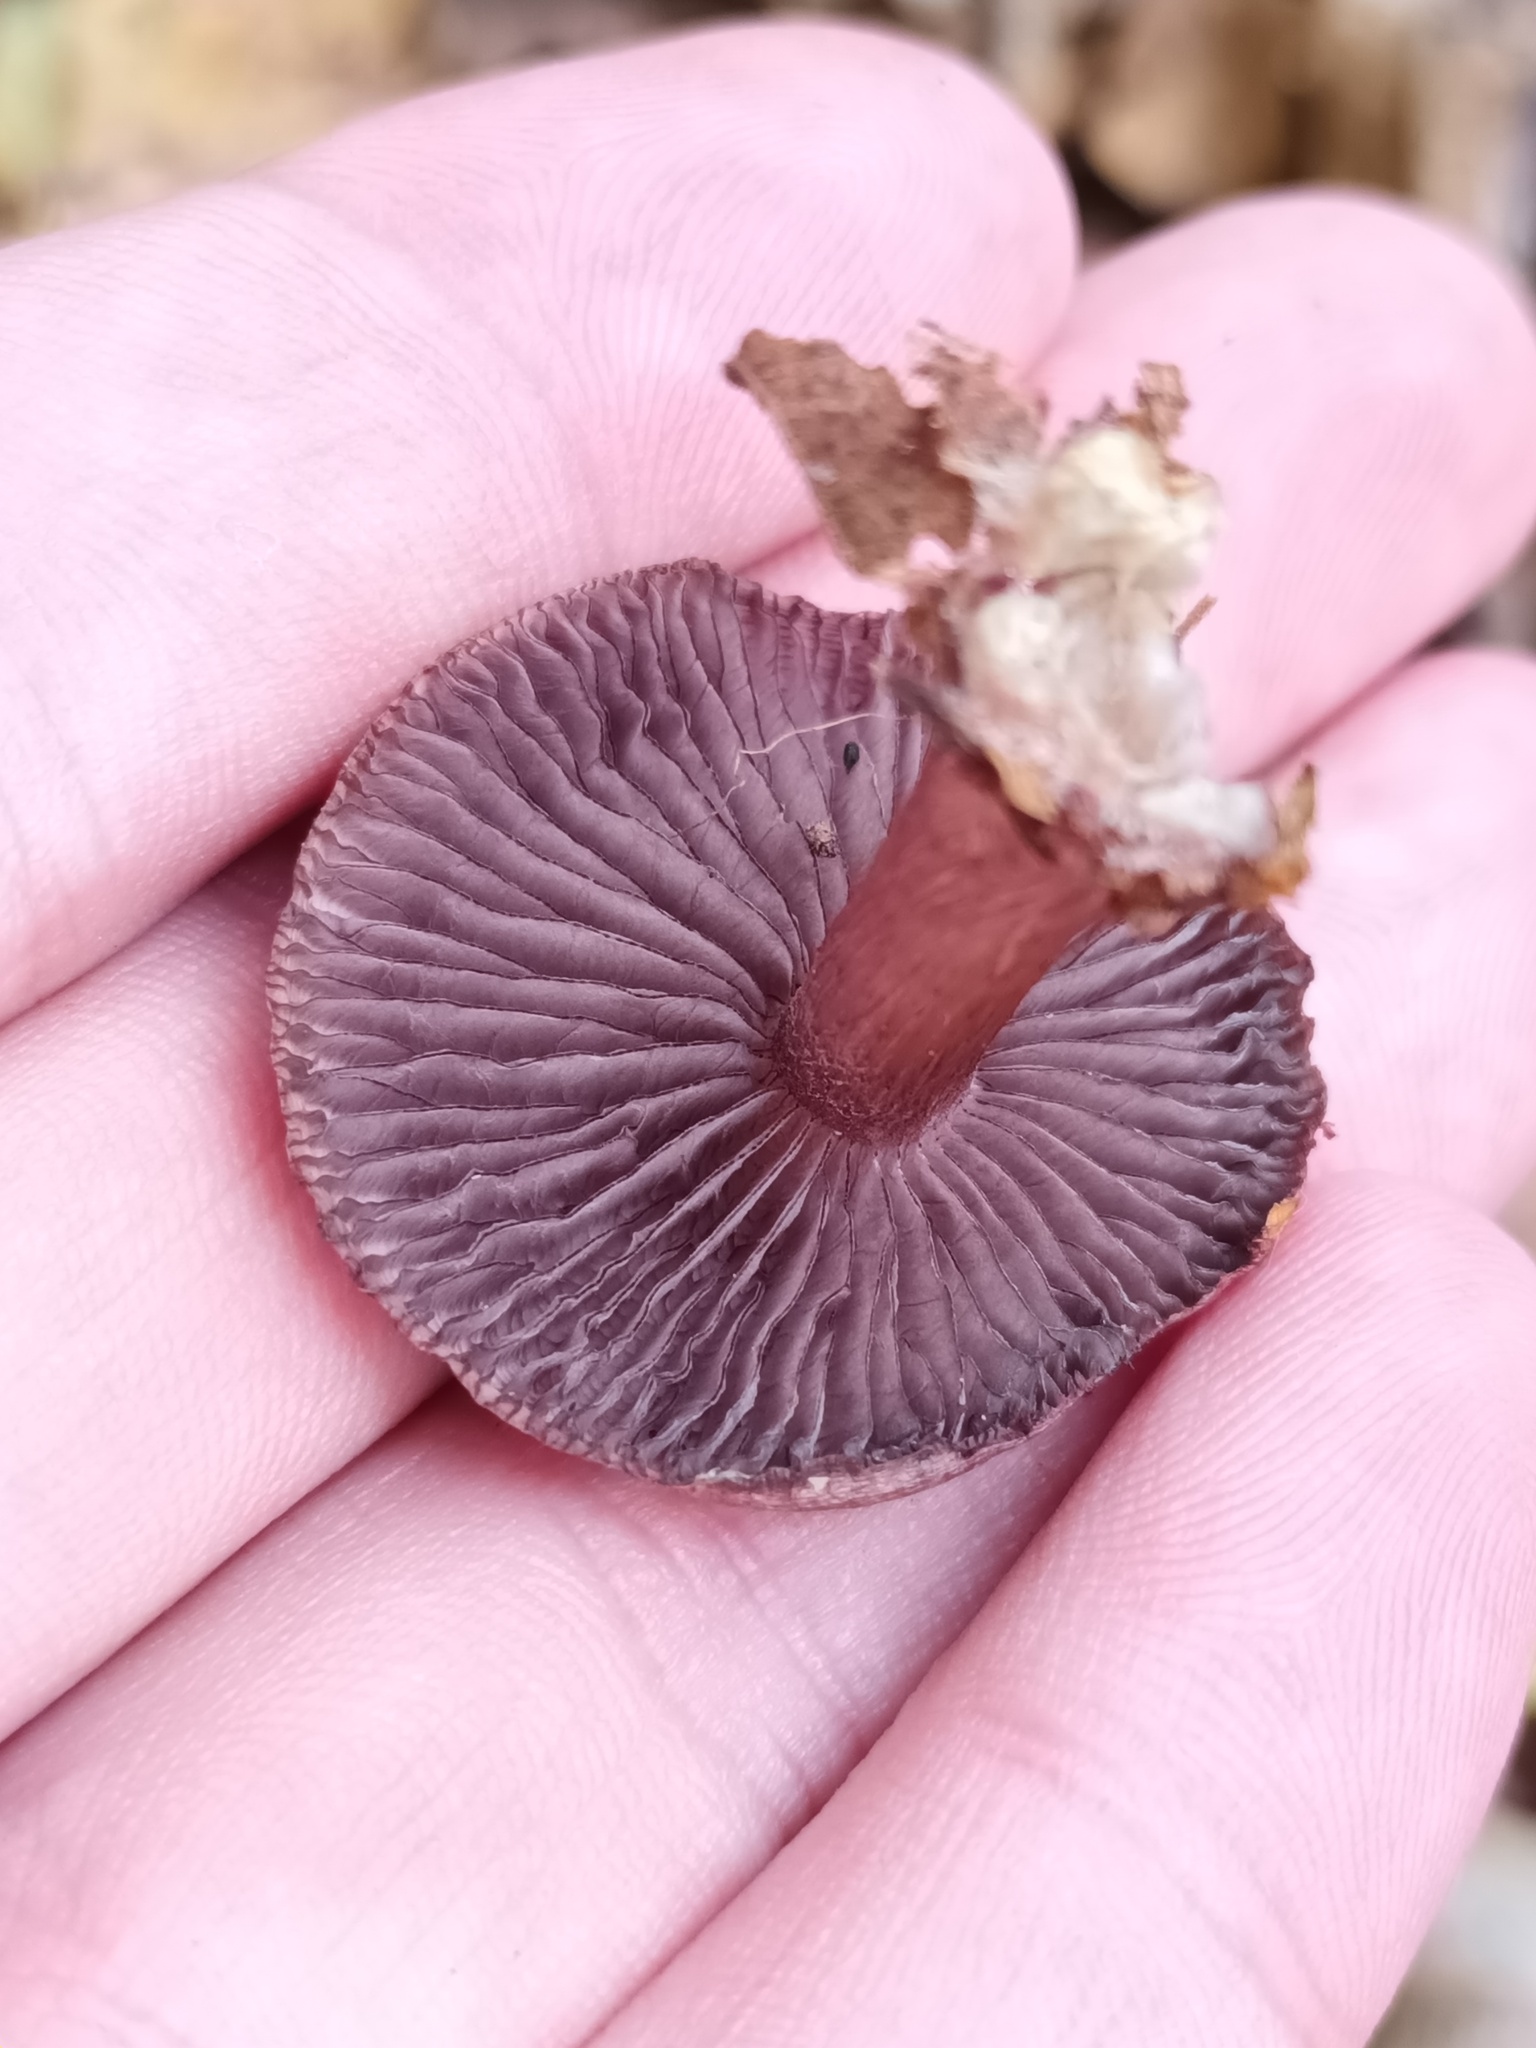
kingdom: Fungi
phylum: Basidiomycota
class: Agaricomycetes
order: Agaricales
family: Mycenaceae
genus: Mycena
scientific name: Mycena pelianthina
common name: Blackedge bonnet
